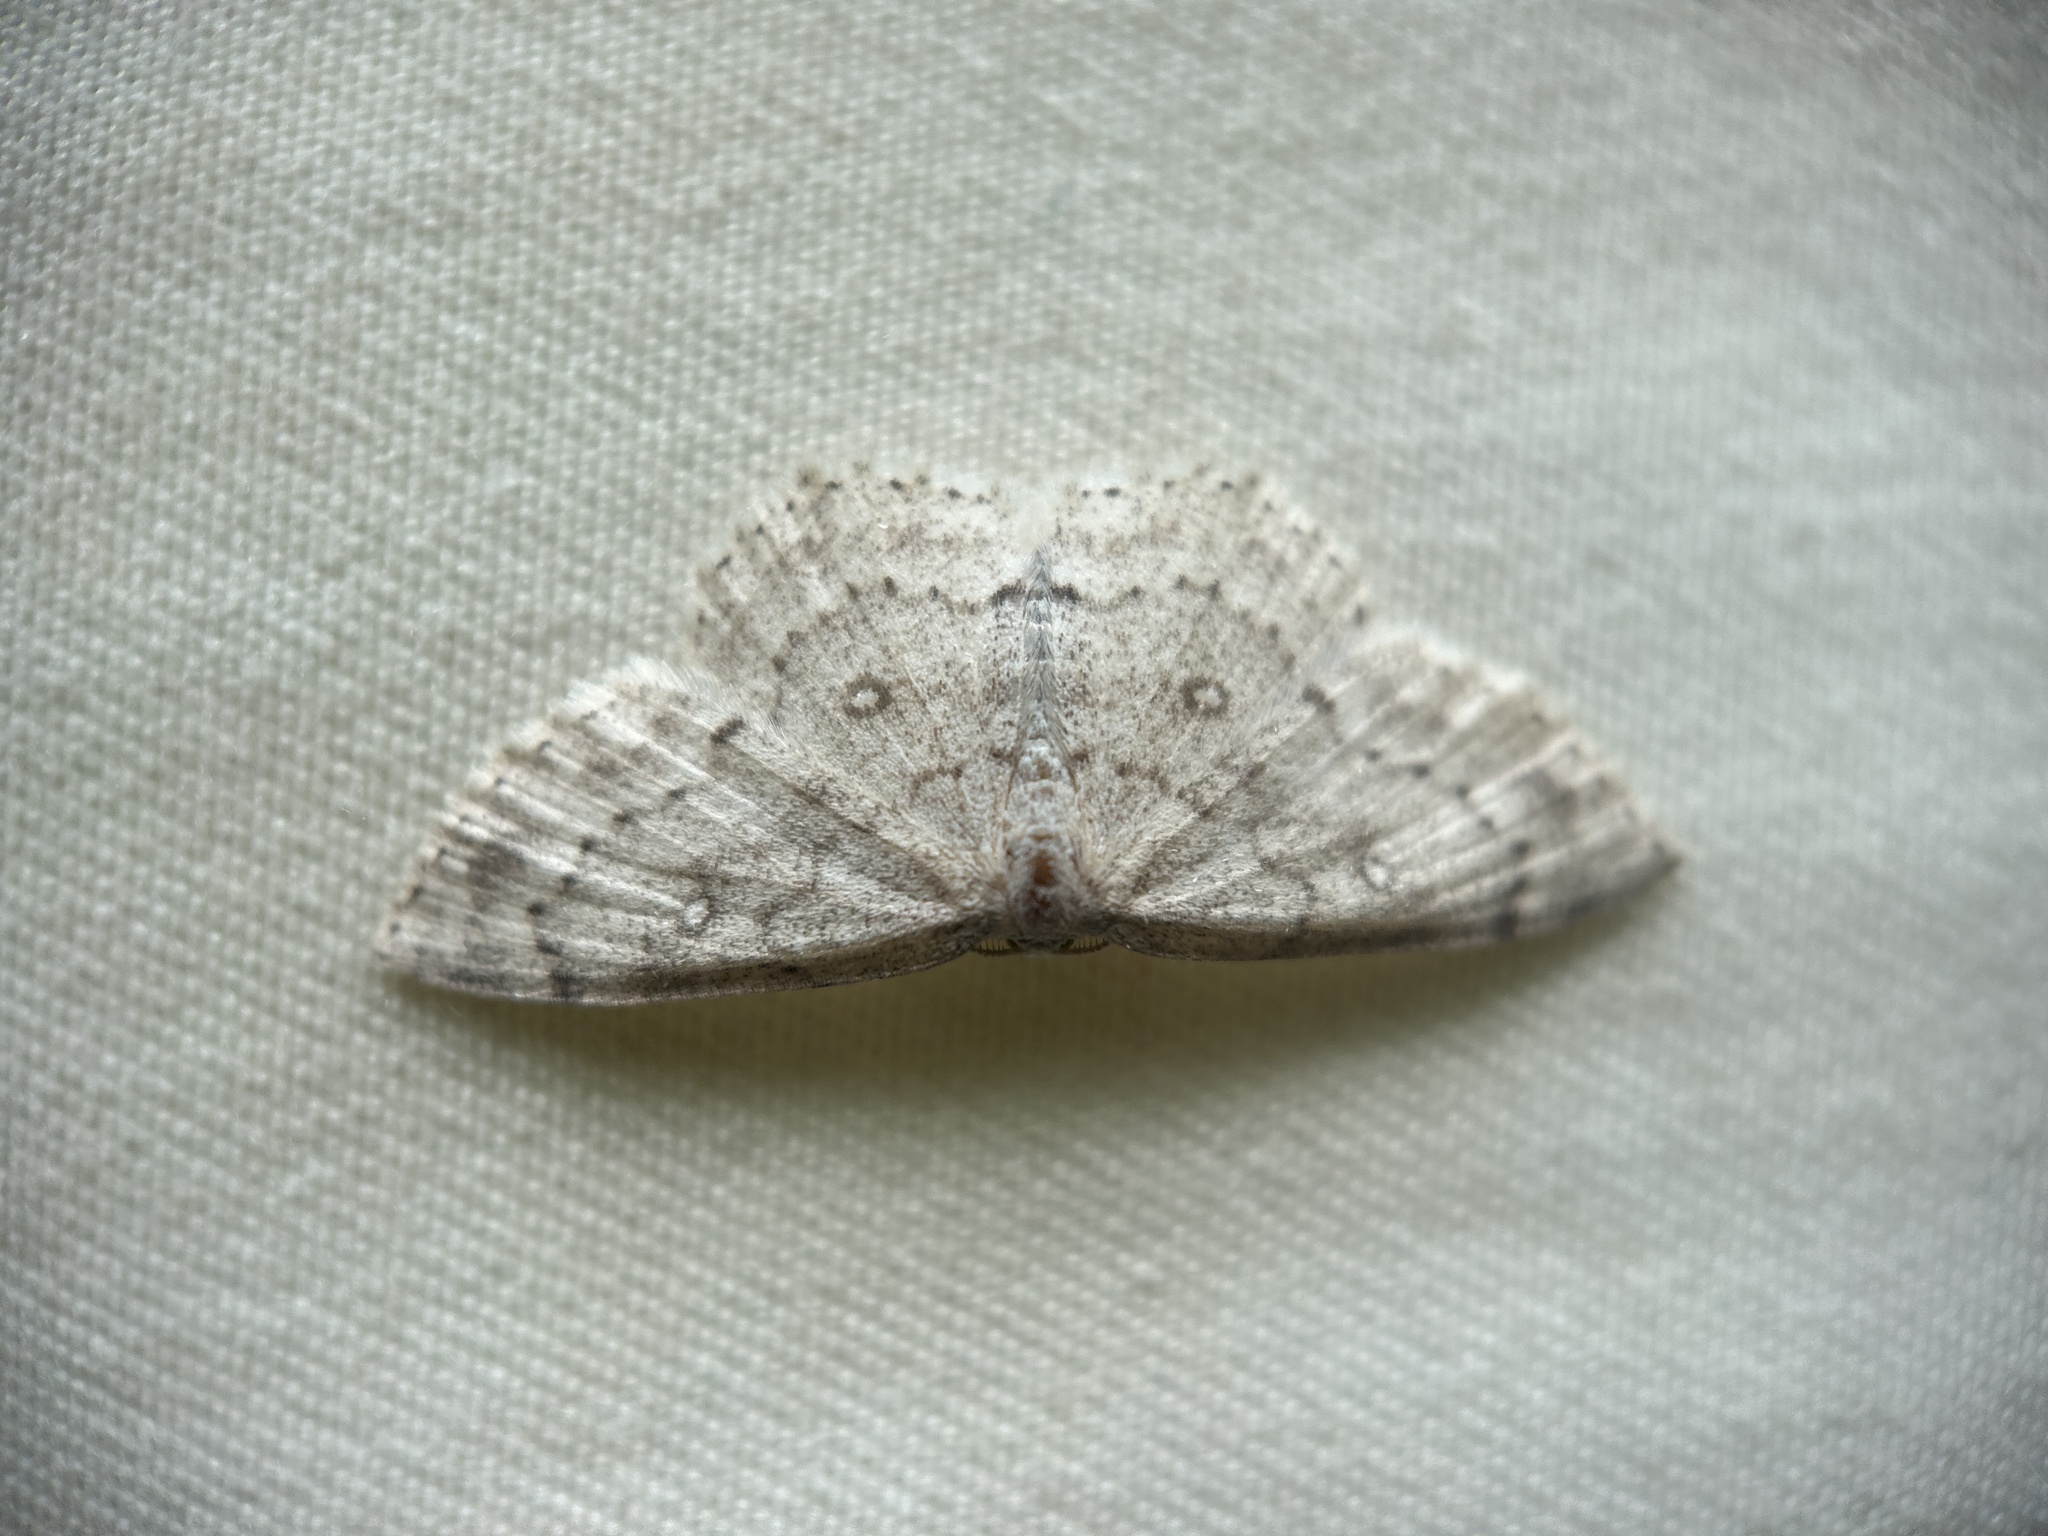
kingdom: Animalia
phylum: Arthropoda
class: Insecta
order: Lepidoptera
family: Geometridae
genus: Cyclophora
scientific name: Cyclophora pendulinaria
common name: Sweet fern geometer
